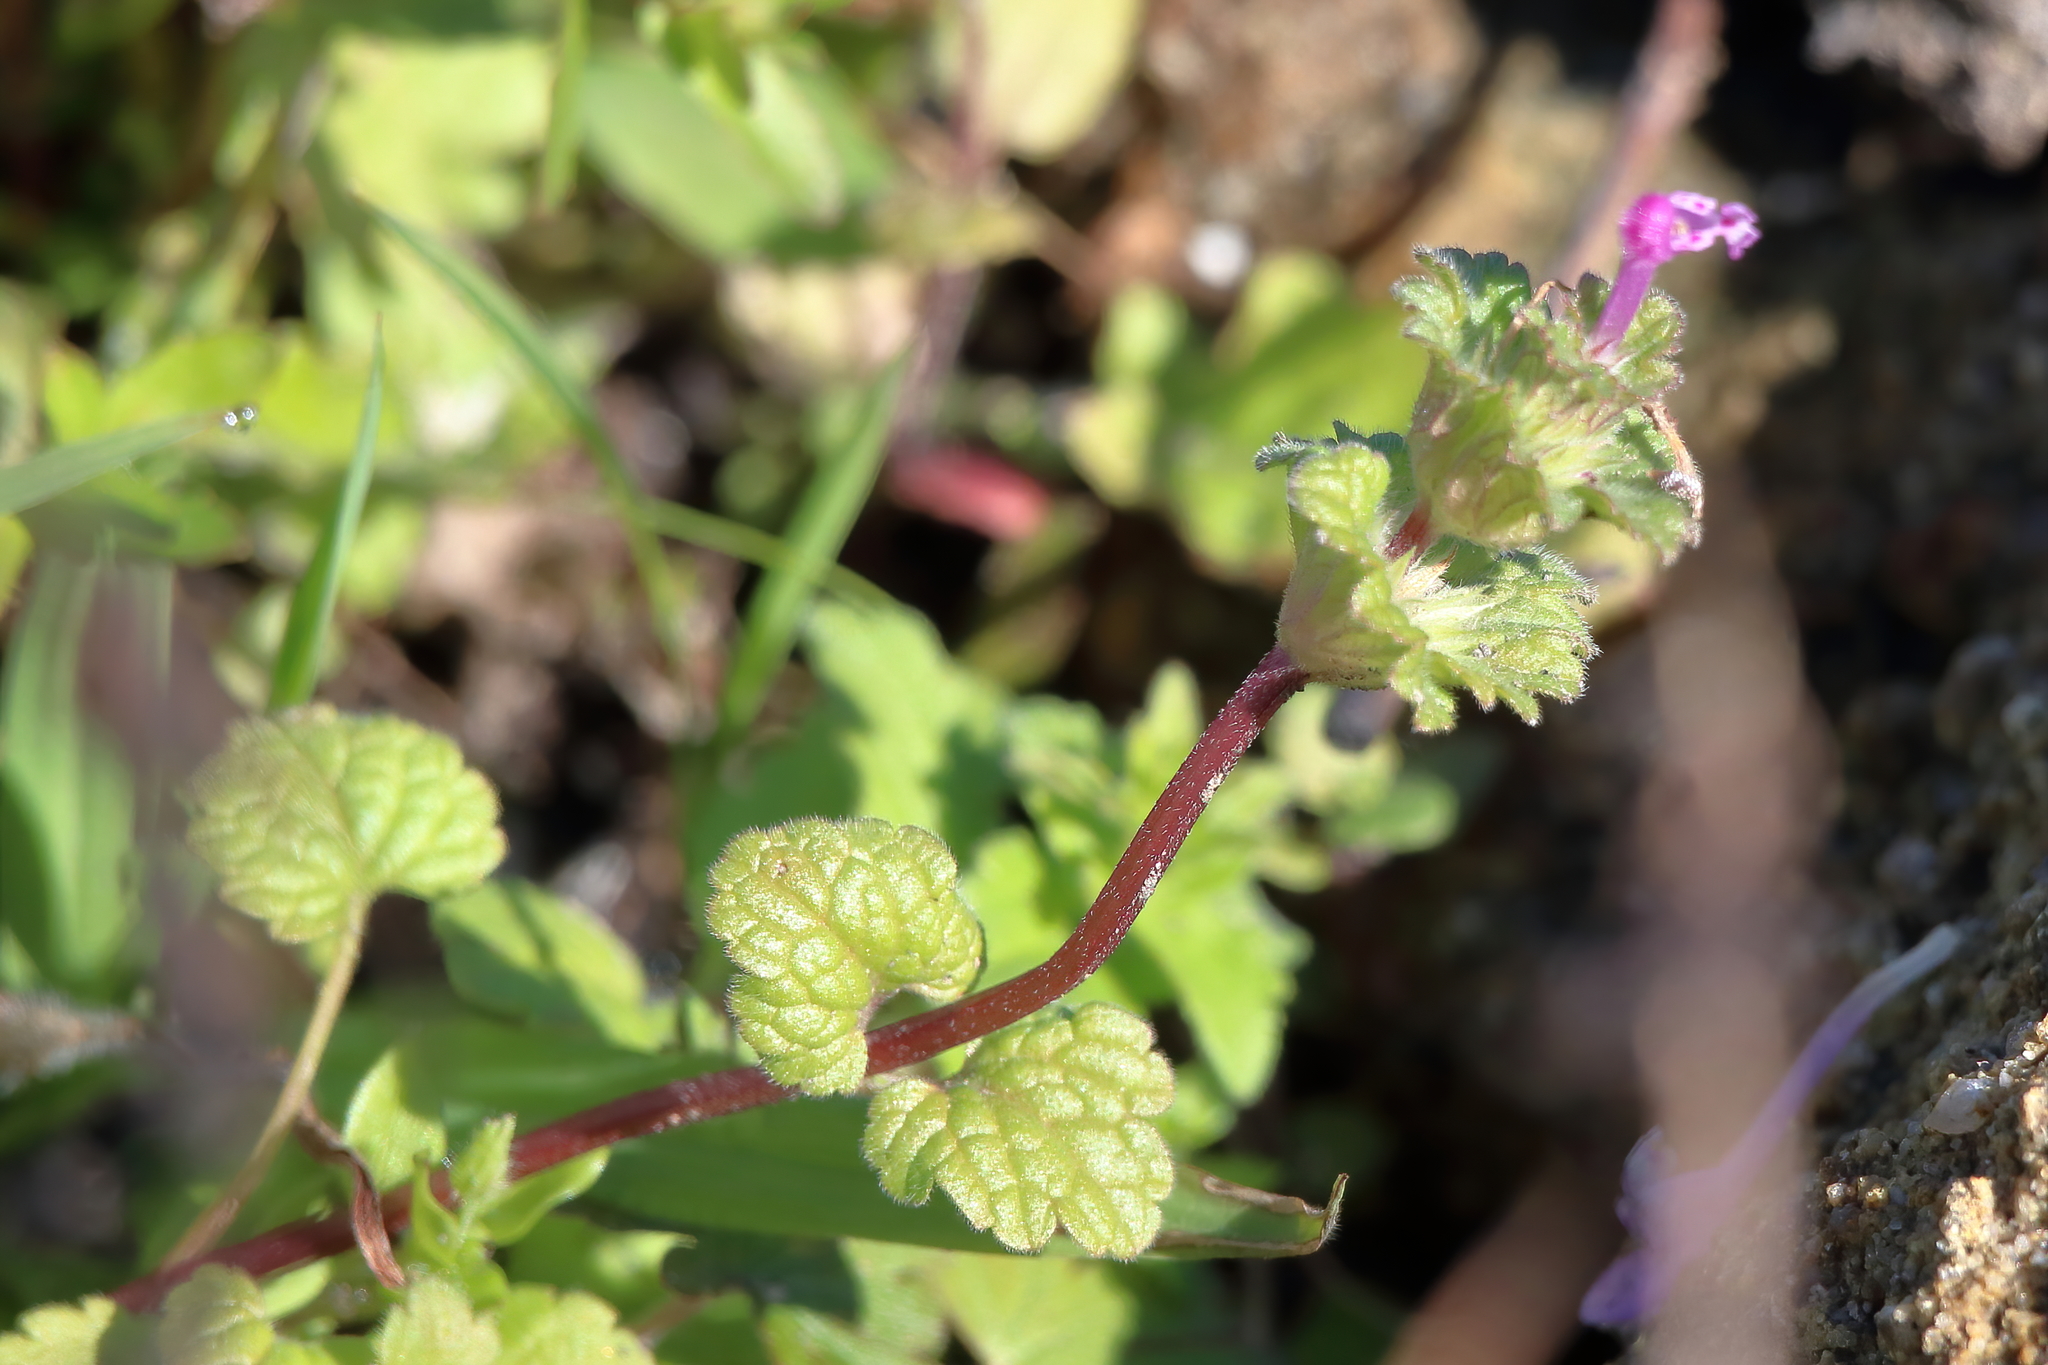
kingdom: Plantae
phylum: Tracheophyta
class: Magnoliopsida
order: Lamiales
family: Lamiaceae
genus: Lamium
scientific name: Lamium amplexicaule
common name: Henbit dead-nettle
